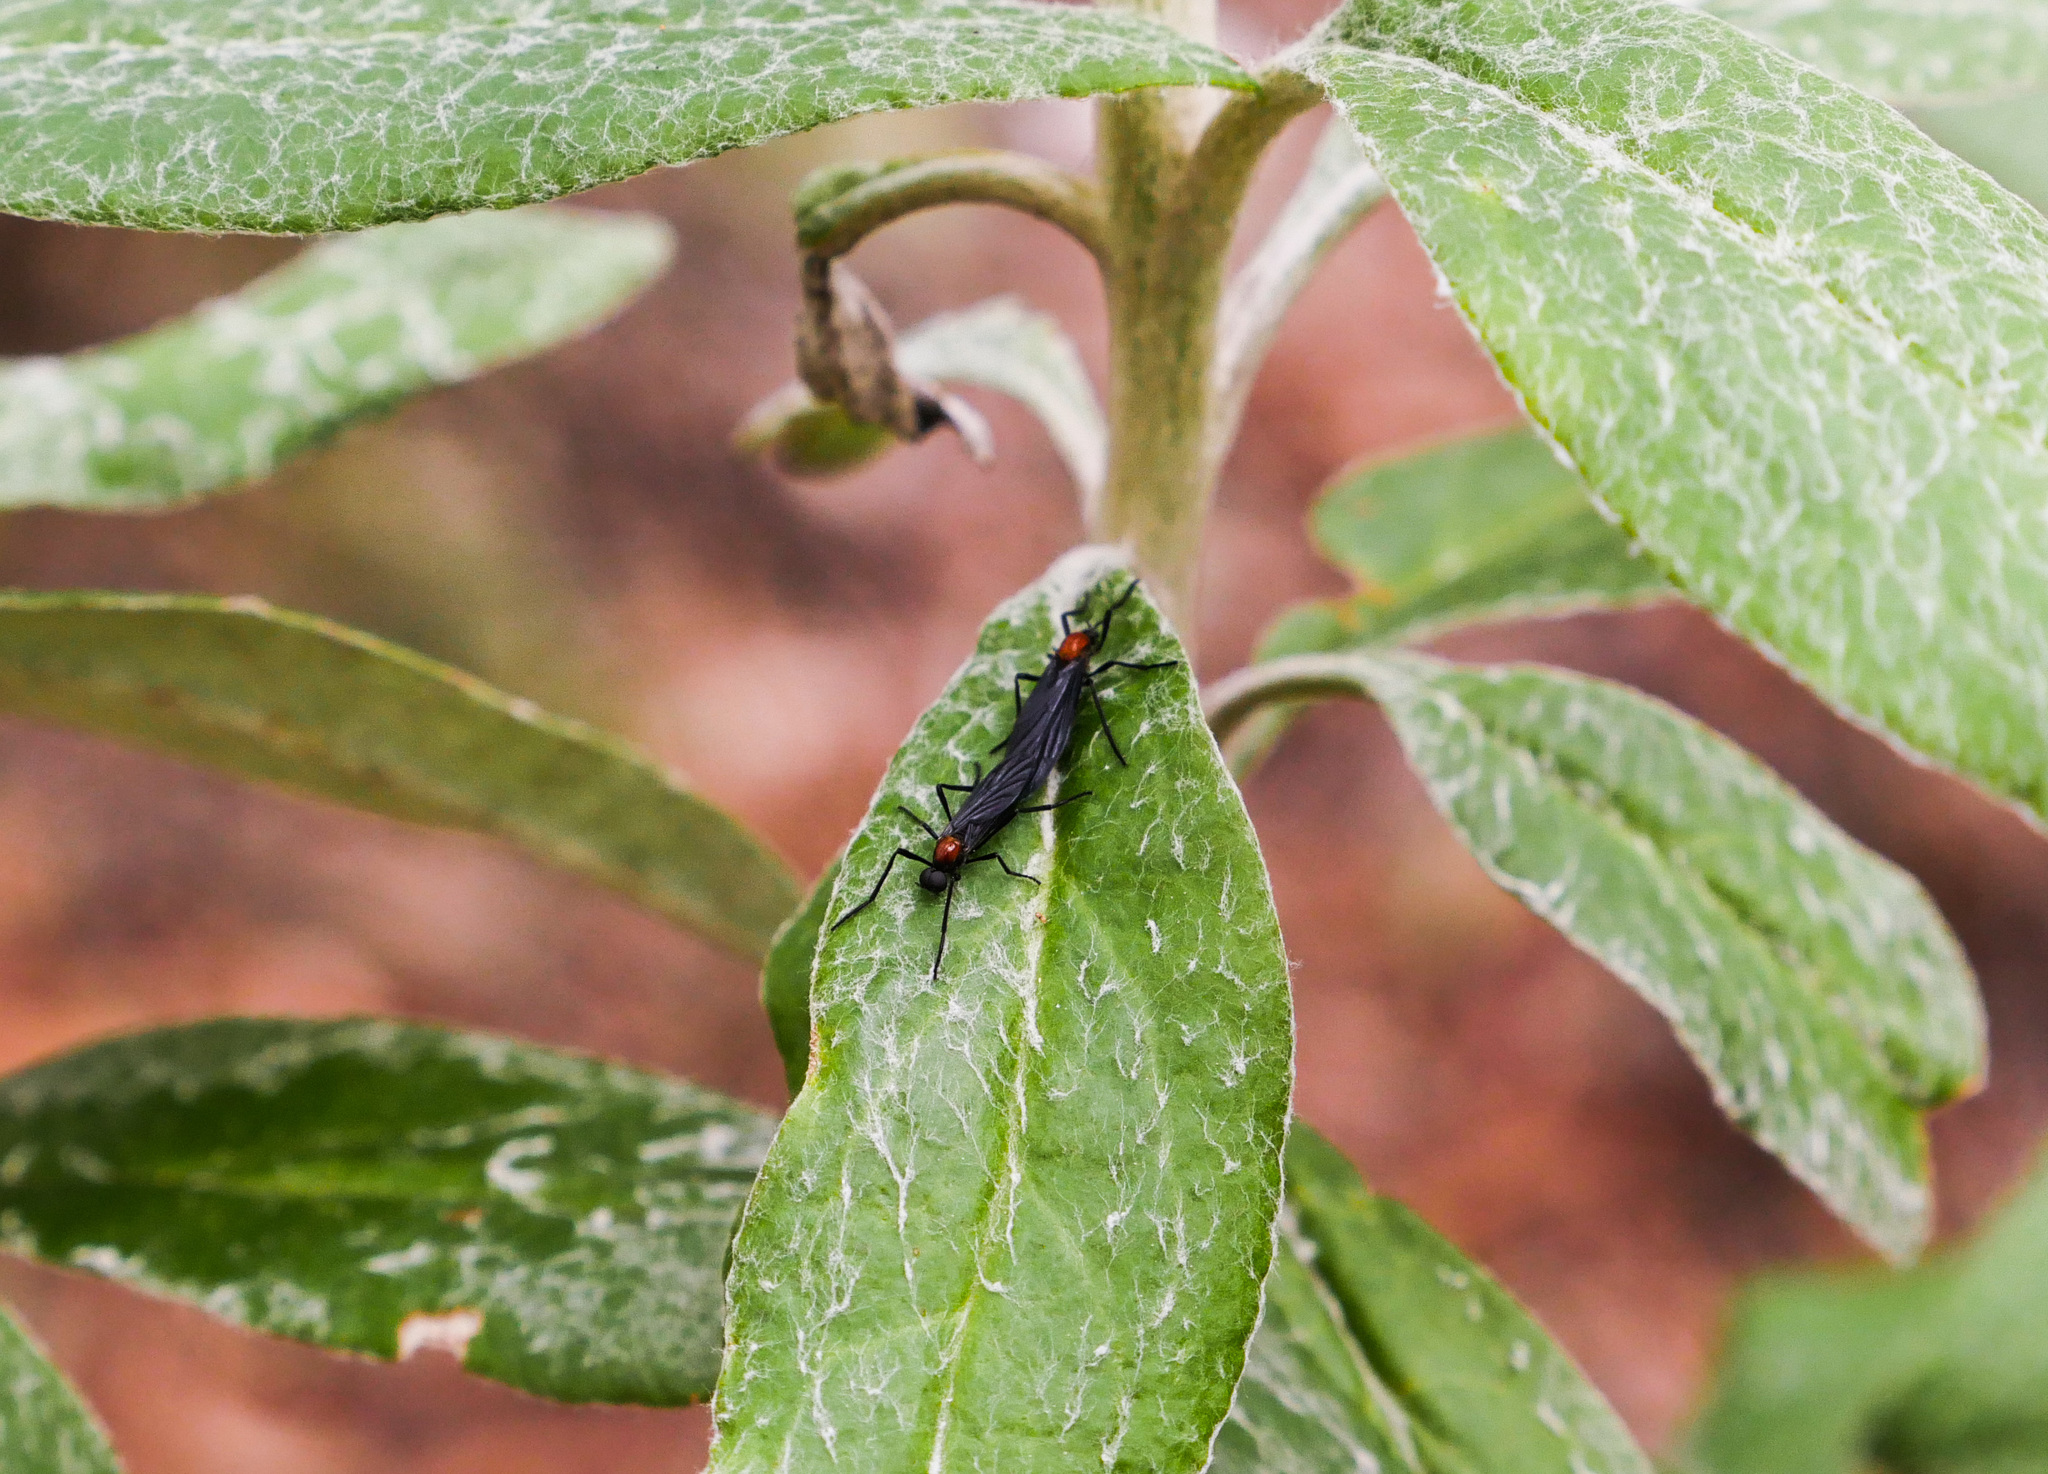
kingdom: Animalia
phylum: Arthropoda
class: Insecta
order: Diptera
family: Bibionidae
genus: Plecia
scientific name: Plecia dimidiata
